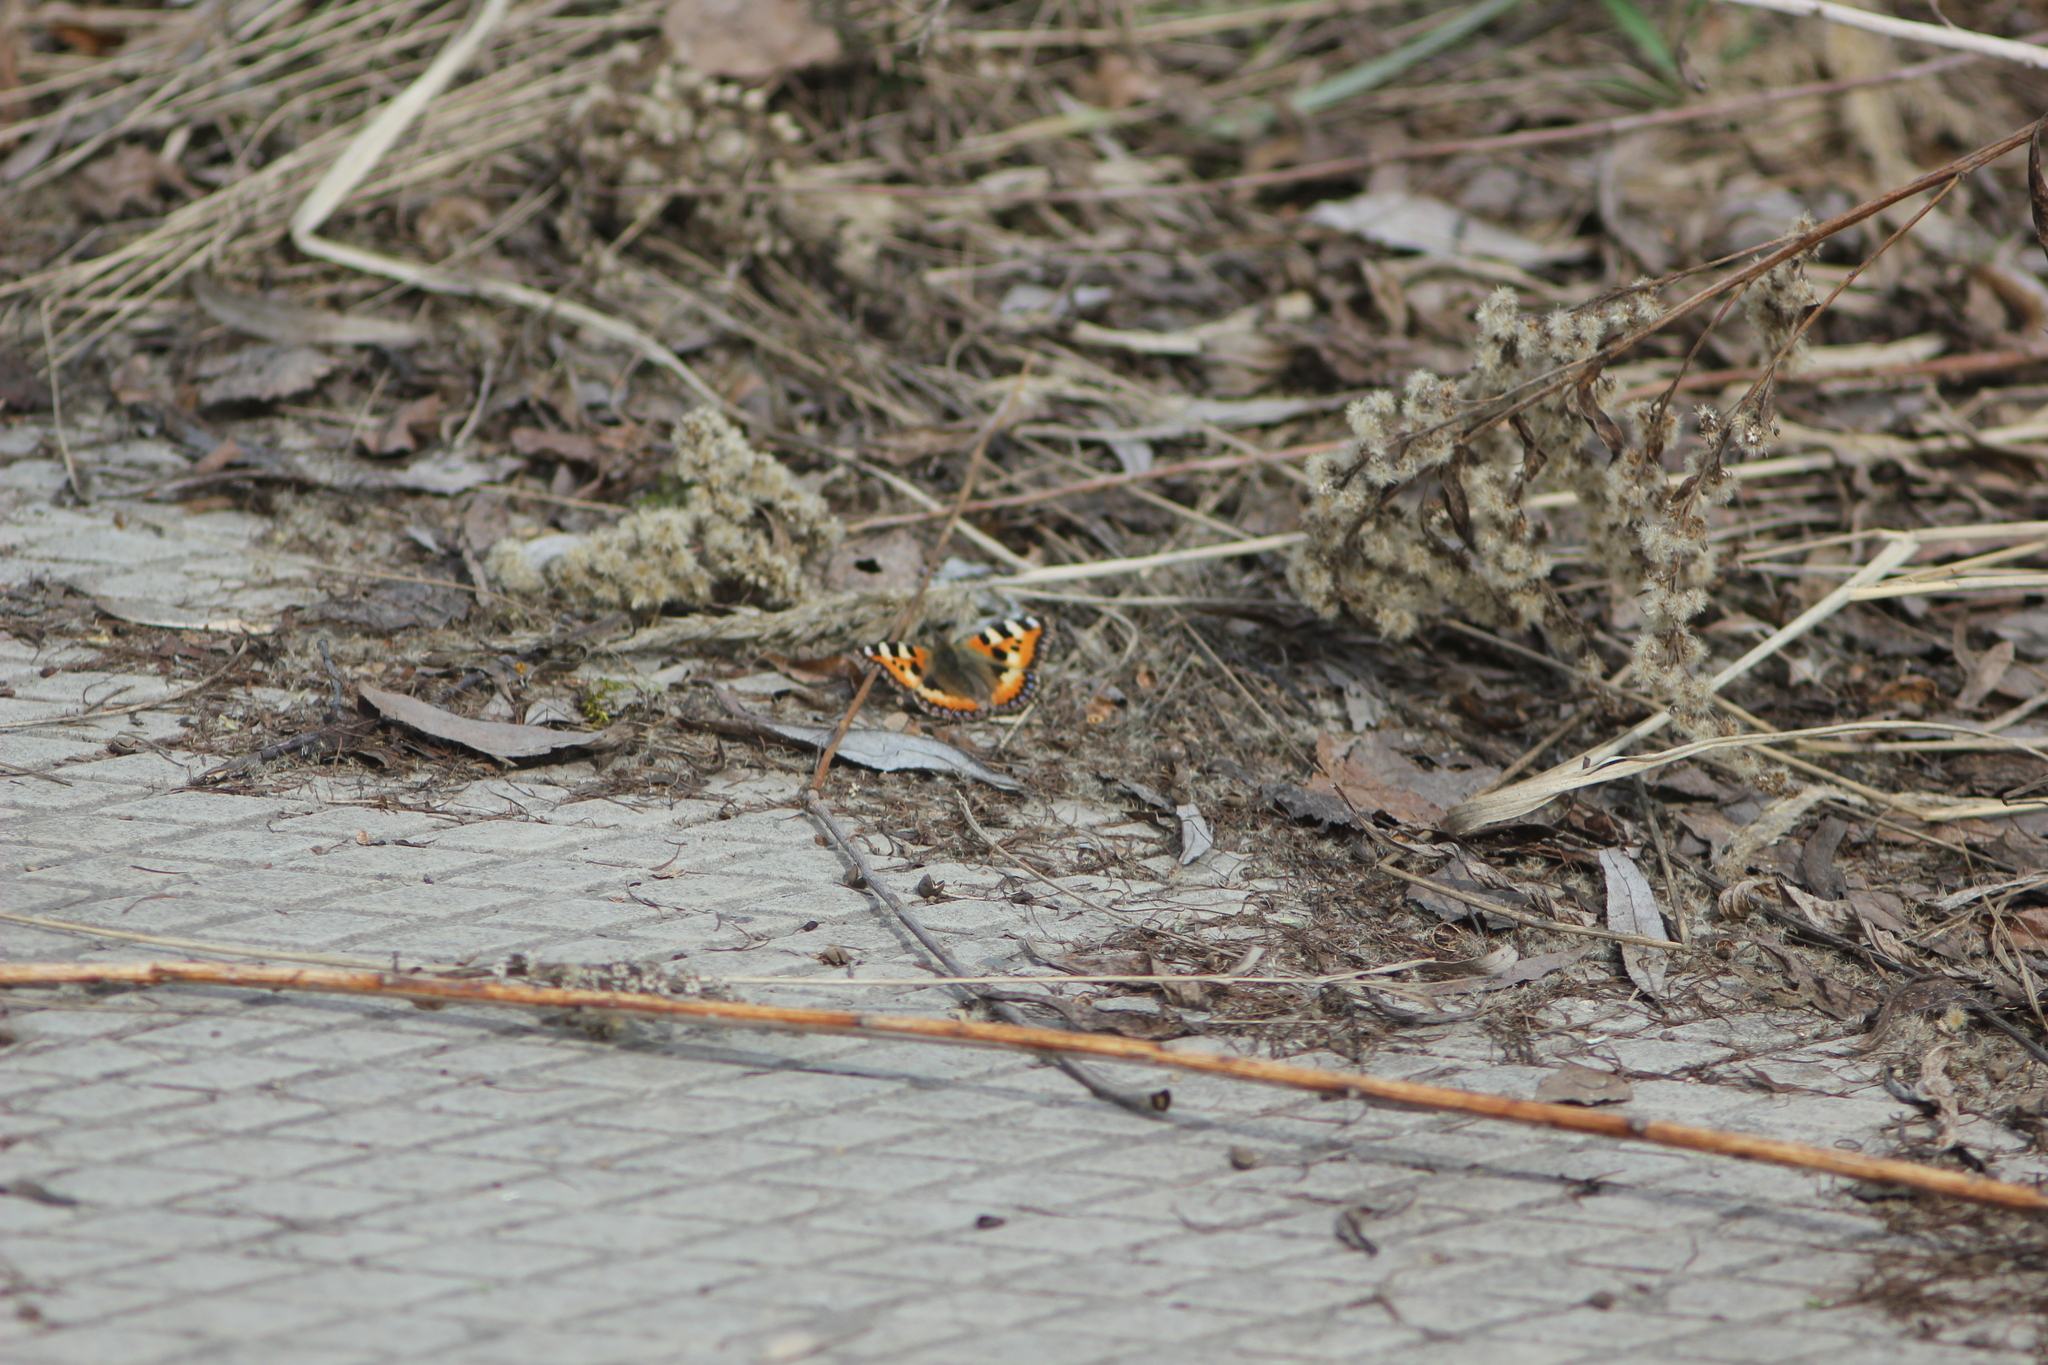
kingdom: Animalia
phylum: Arthropoda
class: Insecta
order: Lepidoptera
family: Nymphalidae
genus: Aglais
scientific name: Aglais urticae
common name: Small tortoiseshell
